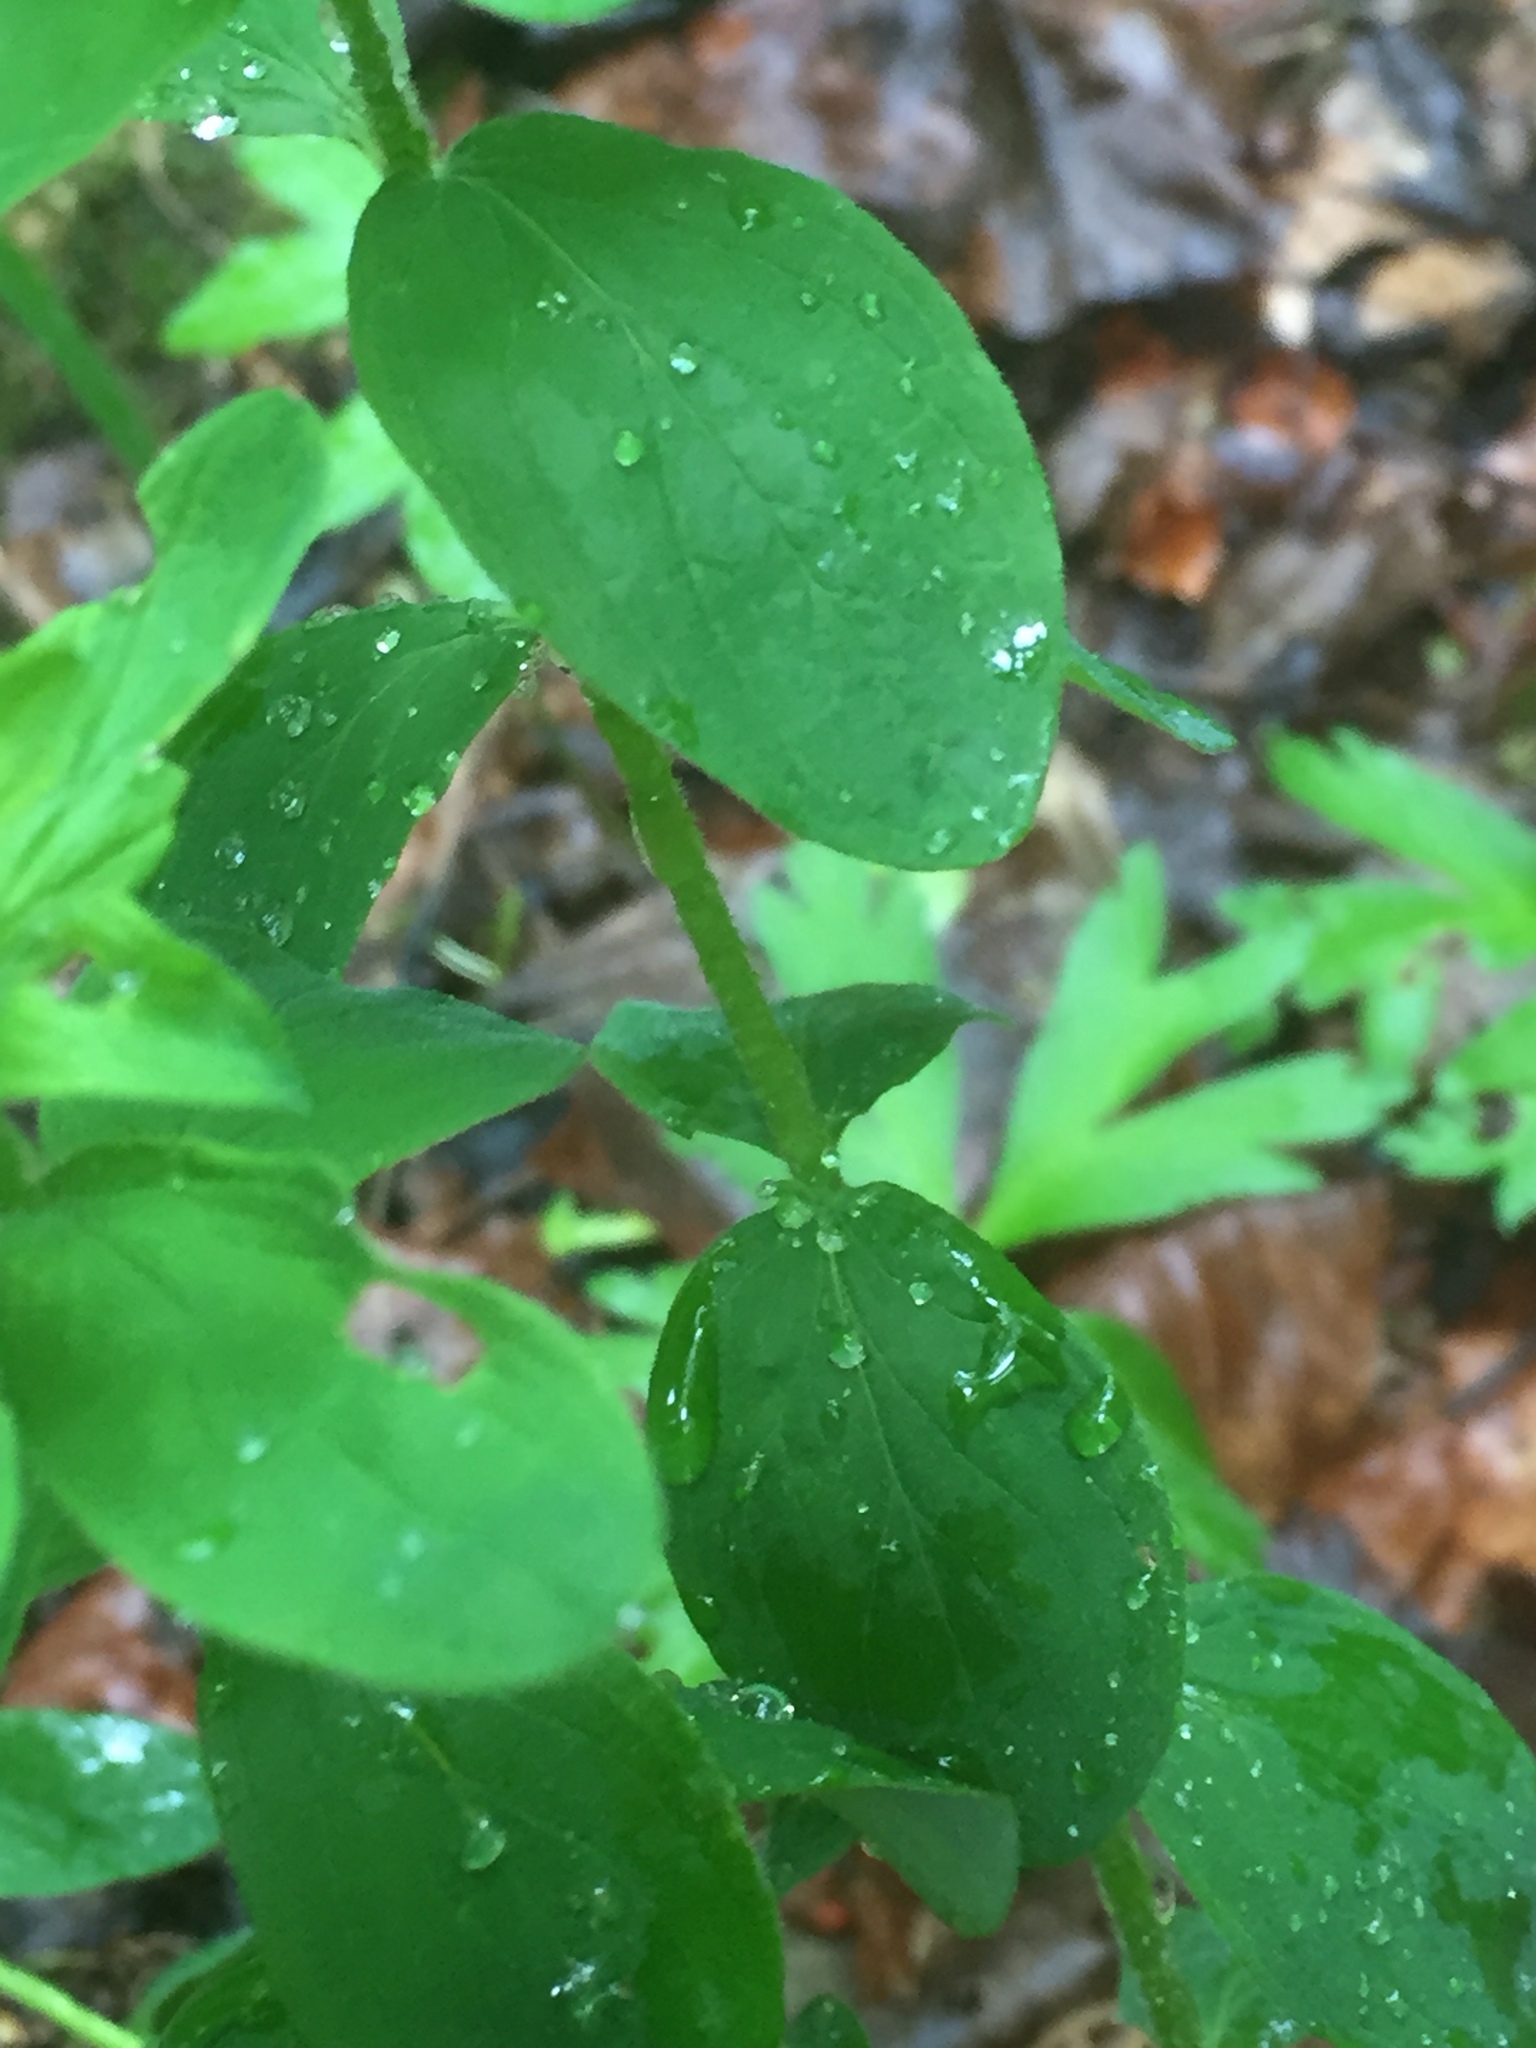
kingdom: Plantae
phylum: Tracheophyta
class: Magnoliopsida
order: Malpighiales
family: Hypericaceae
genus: Hypericum
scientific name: Hypericum hirsutum
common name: Hairy st. john's-wort
